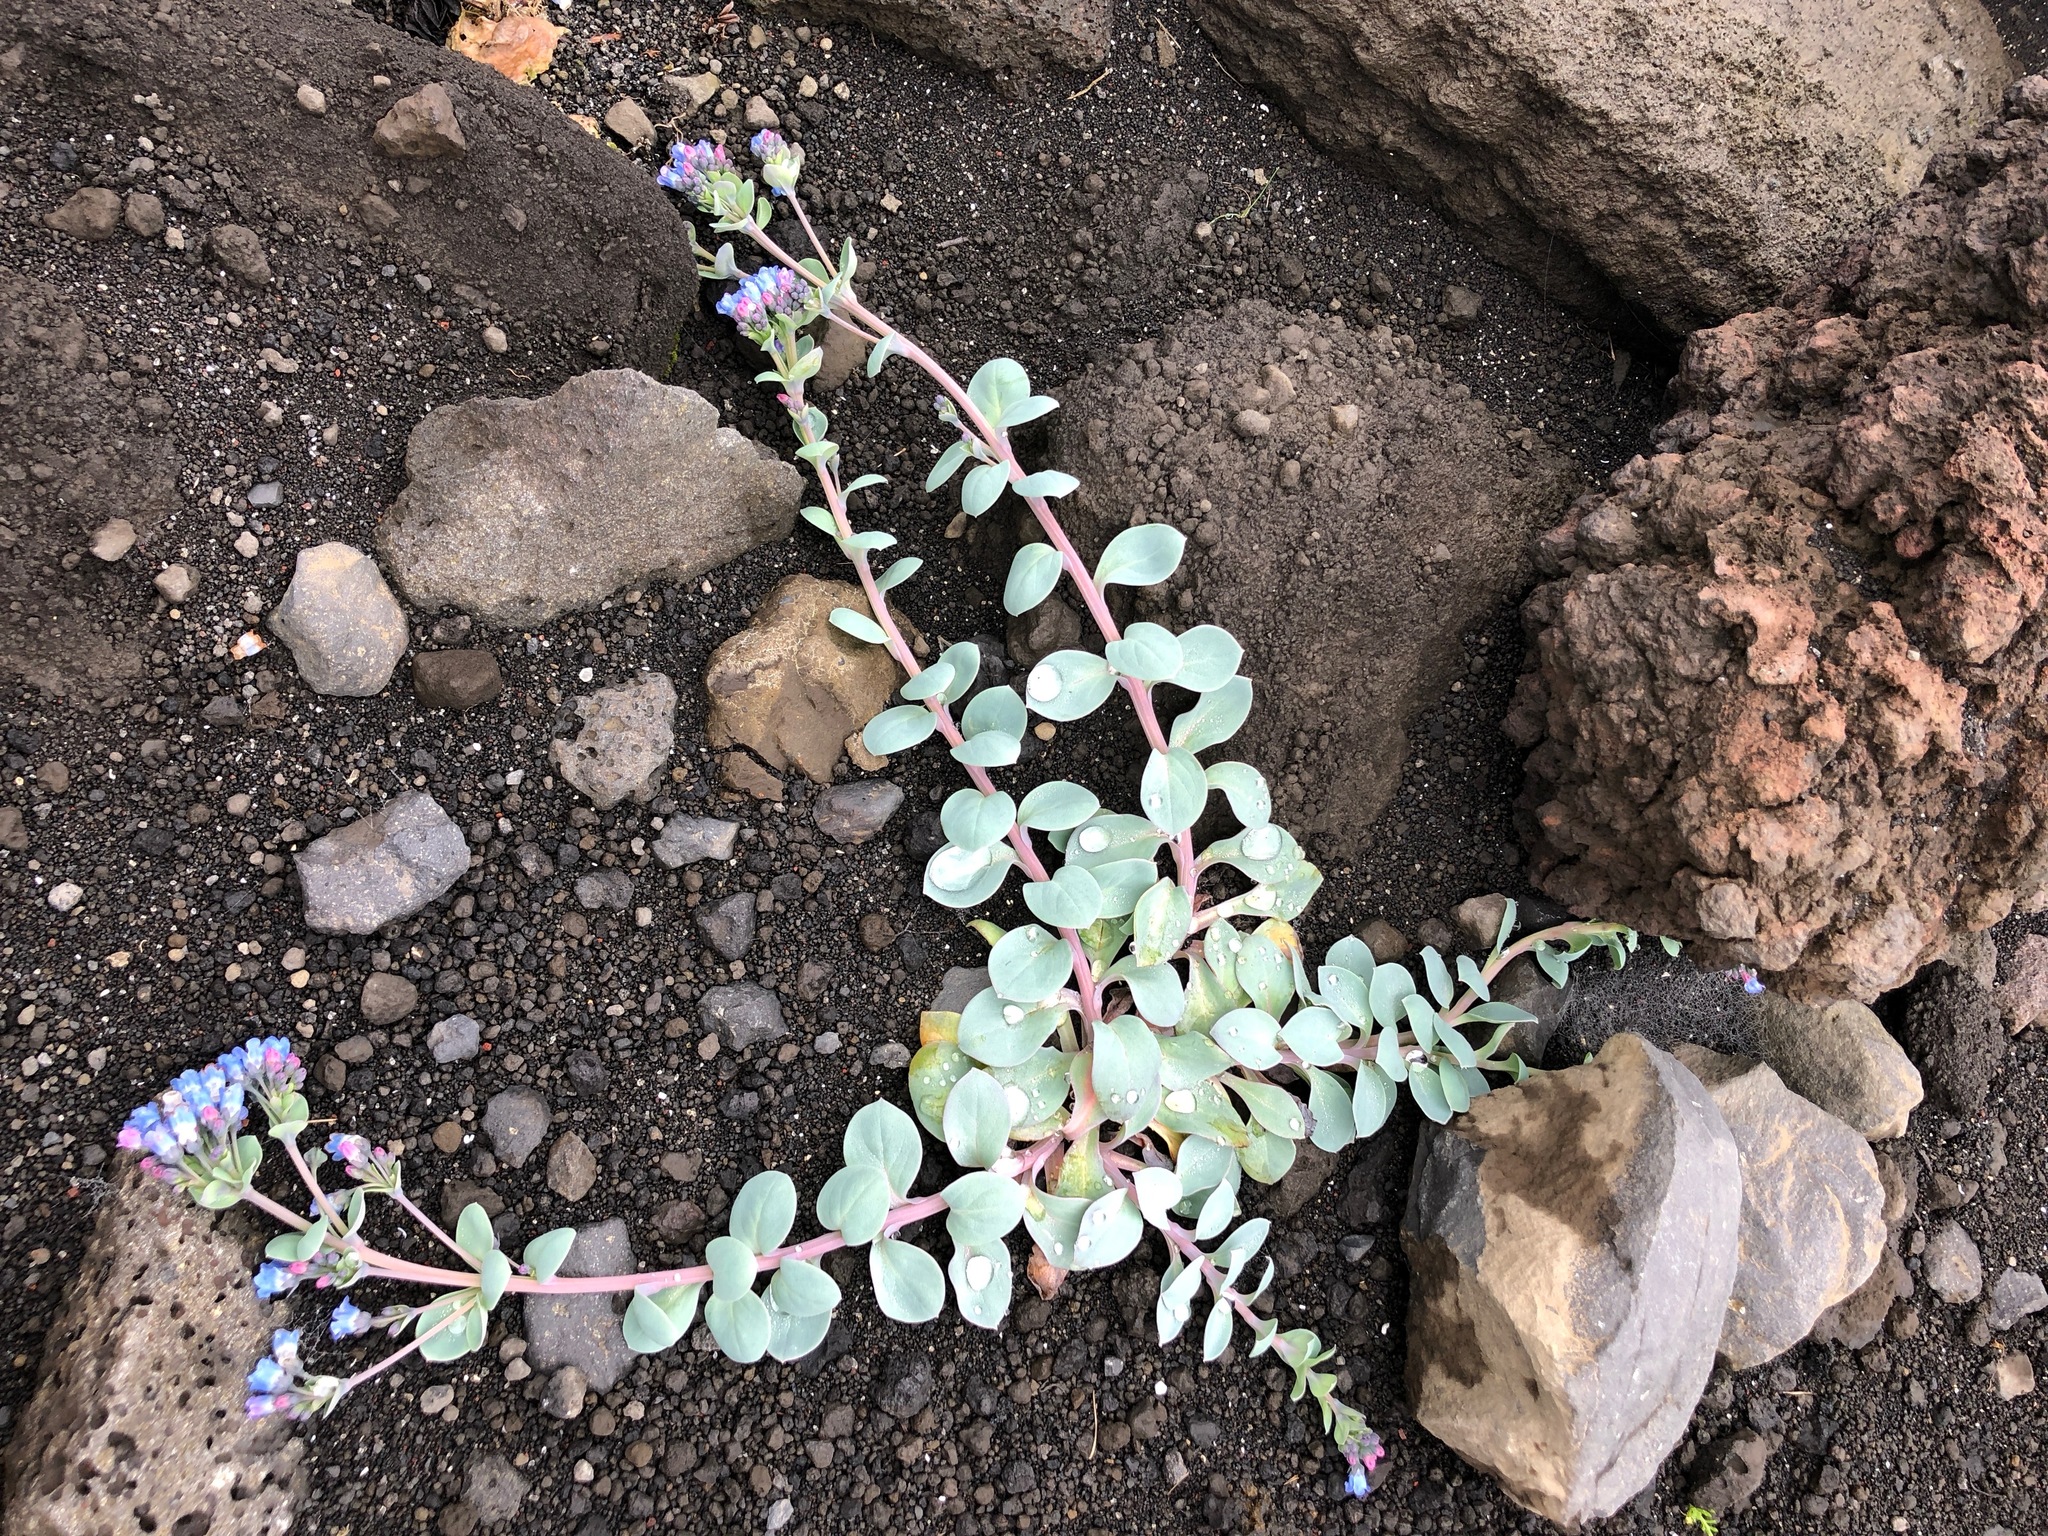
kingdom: Plantae
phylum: Tracheophyta
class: Magnoliopsida
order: Boraginales
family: Boraginaceae
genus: Mertensia
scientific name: Mertensia maritima
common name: Oysterplant
